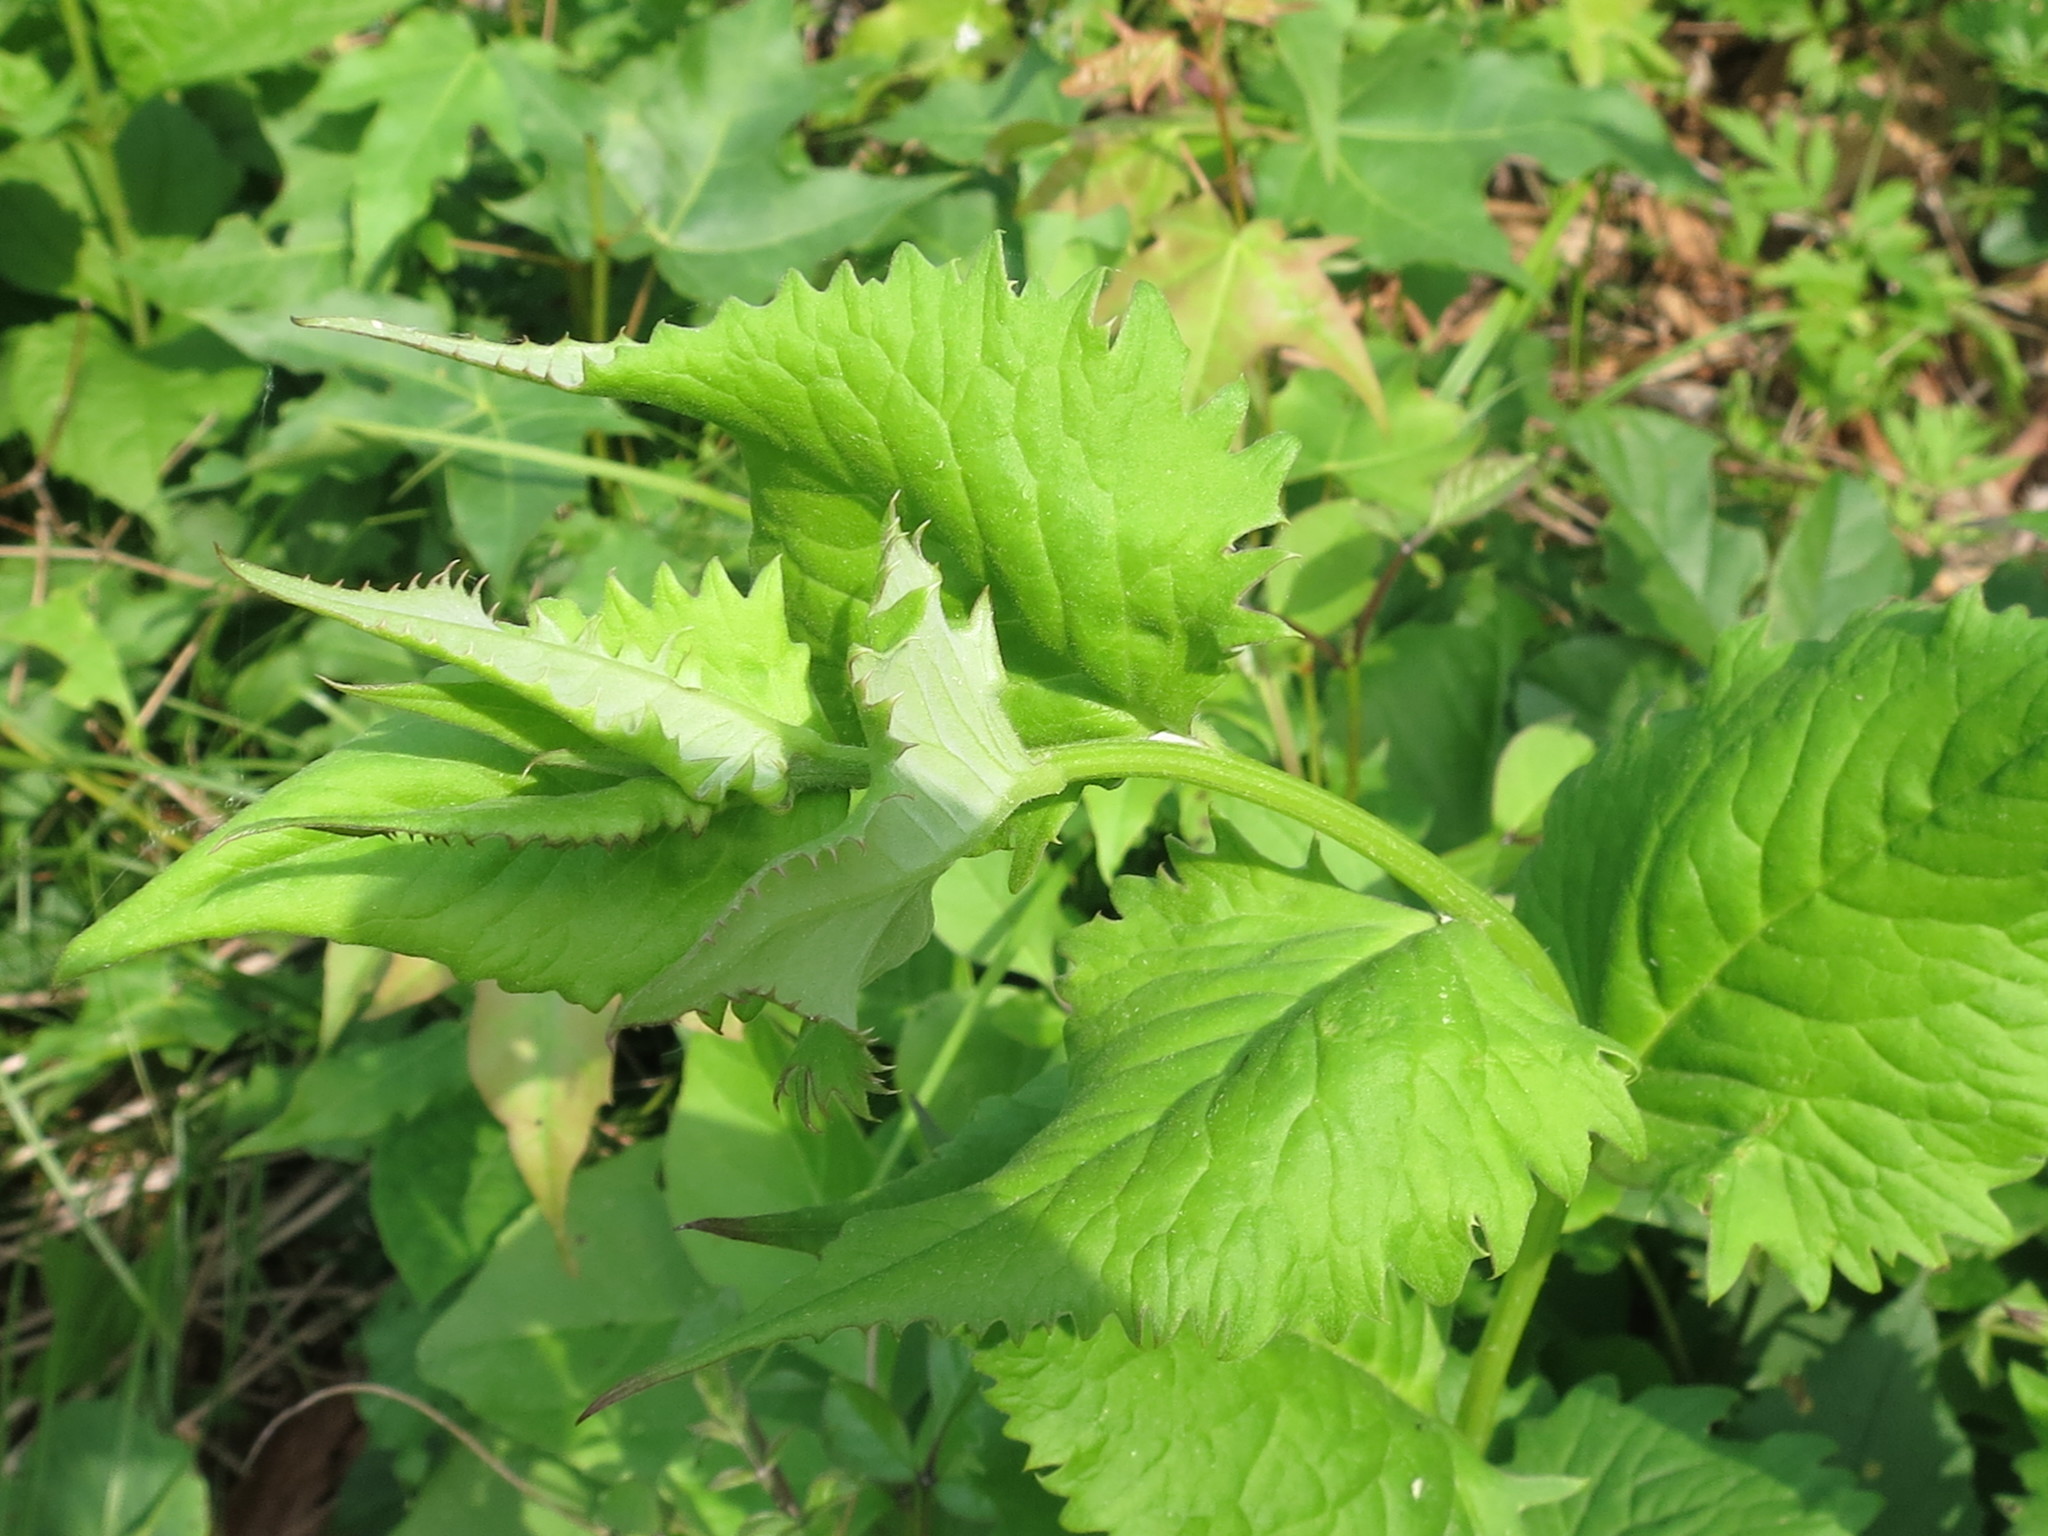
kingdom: Plantae
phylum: Tracheophyta
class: Magnoliopsida
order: Asterales
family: Asteraceae
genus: Saussurea
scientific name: Saussurea grandifolia
